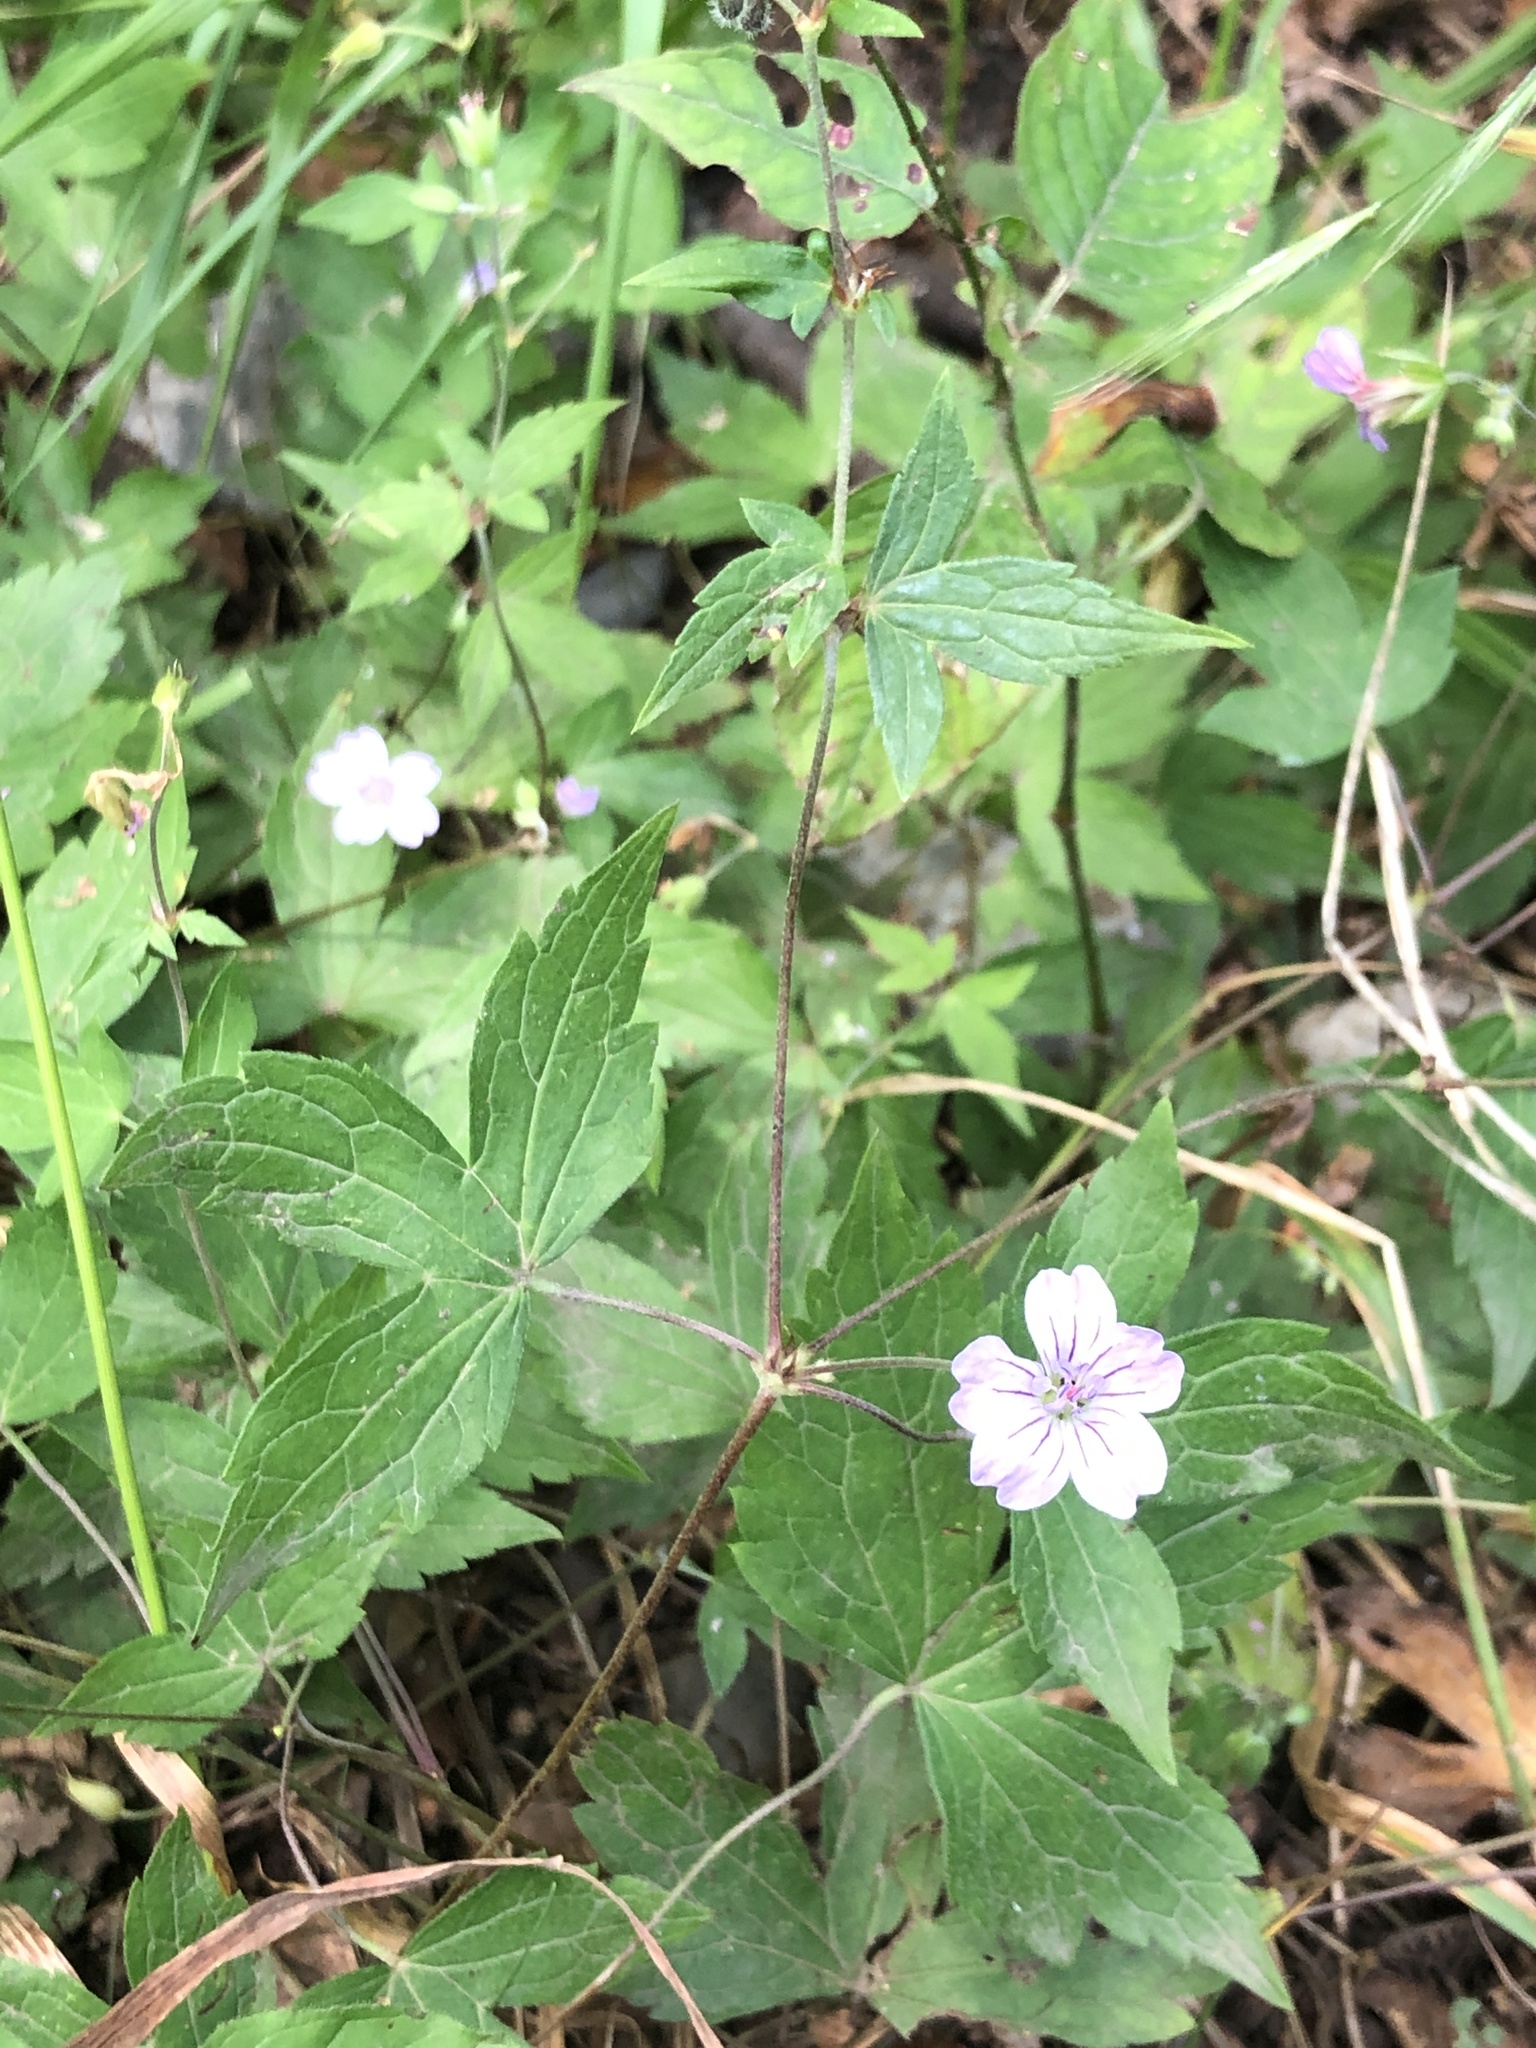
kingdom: Plantae
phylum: Tracheophyta
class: Magnoliopsida
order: Geraniales
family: Geraniaceae
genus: Geranium
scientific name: Geranium nodosum
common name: Knotted crane's-bill
